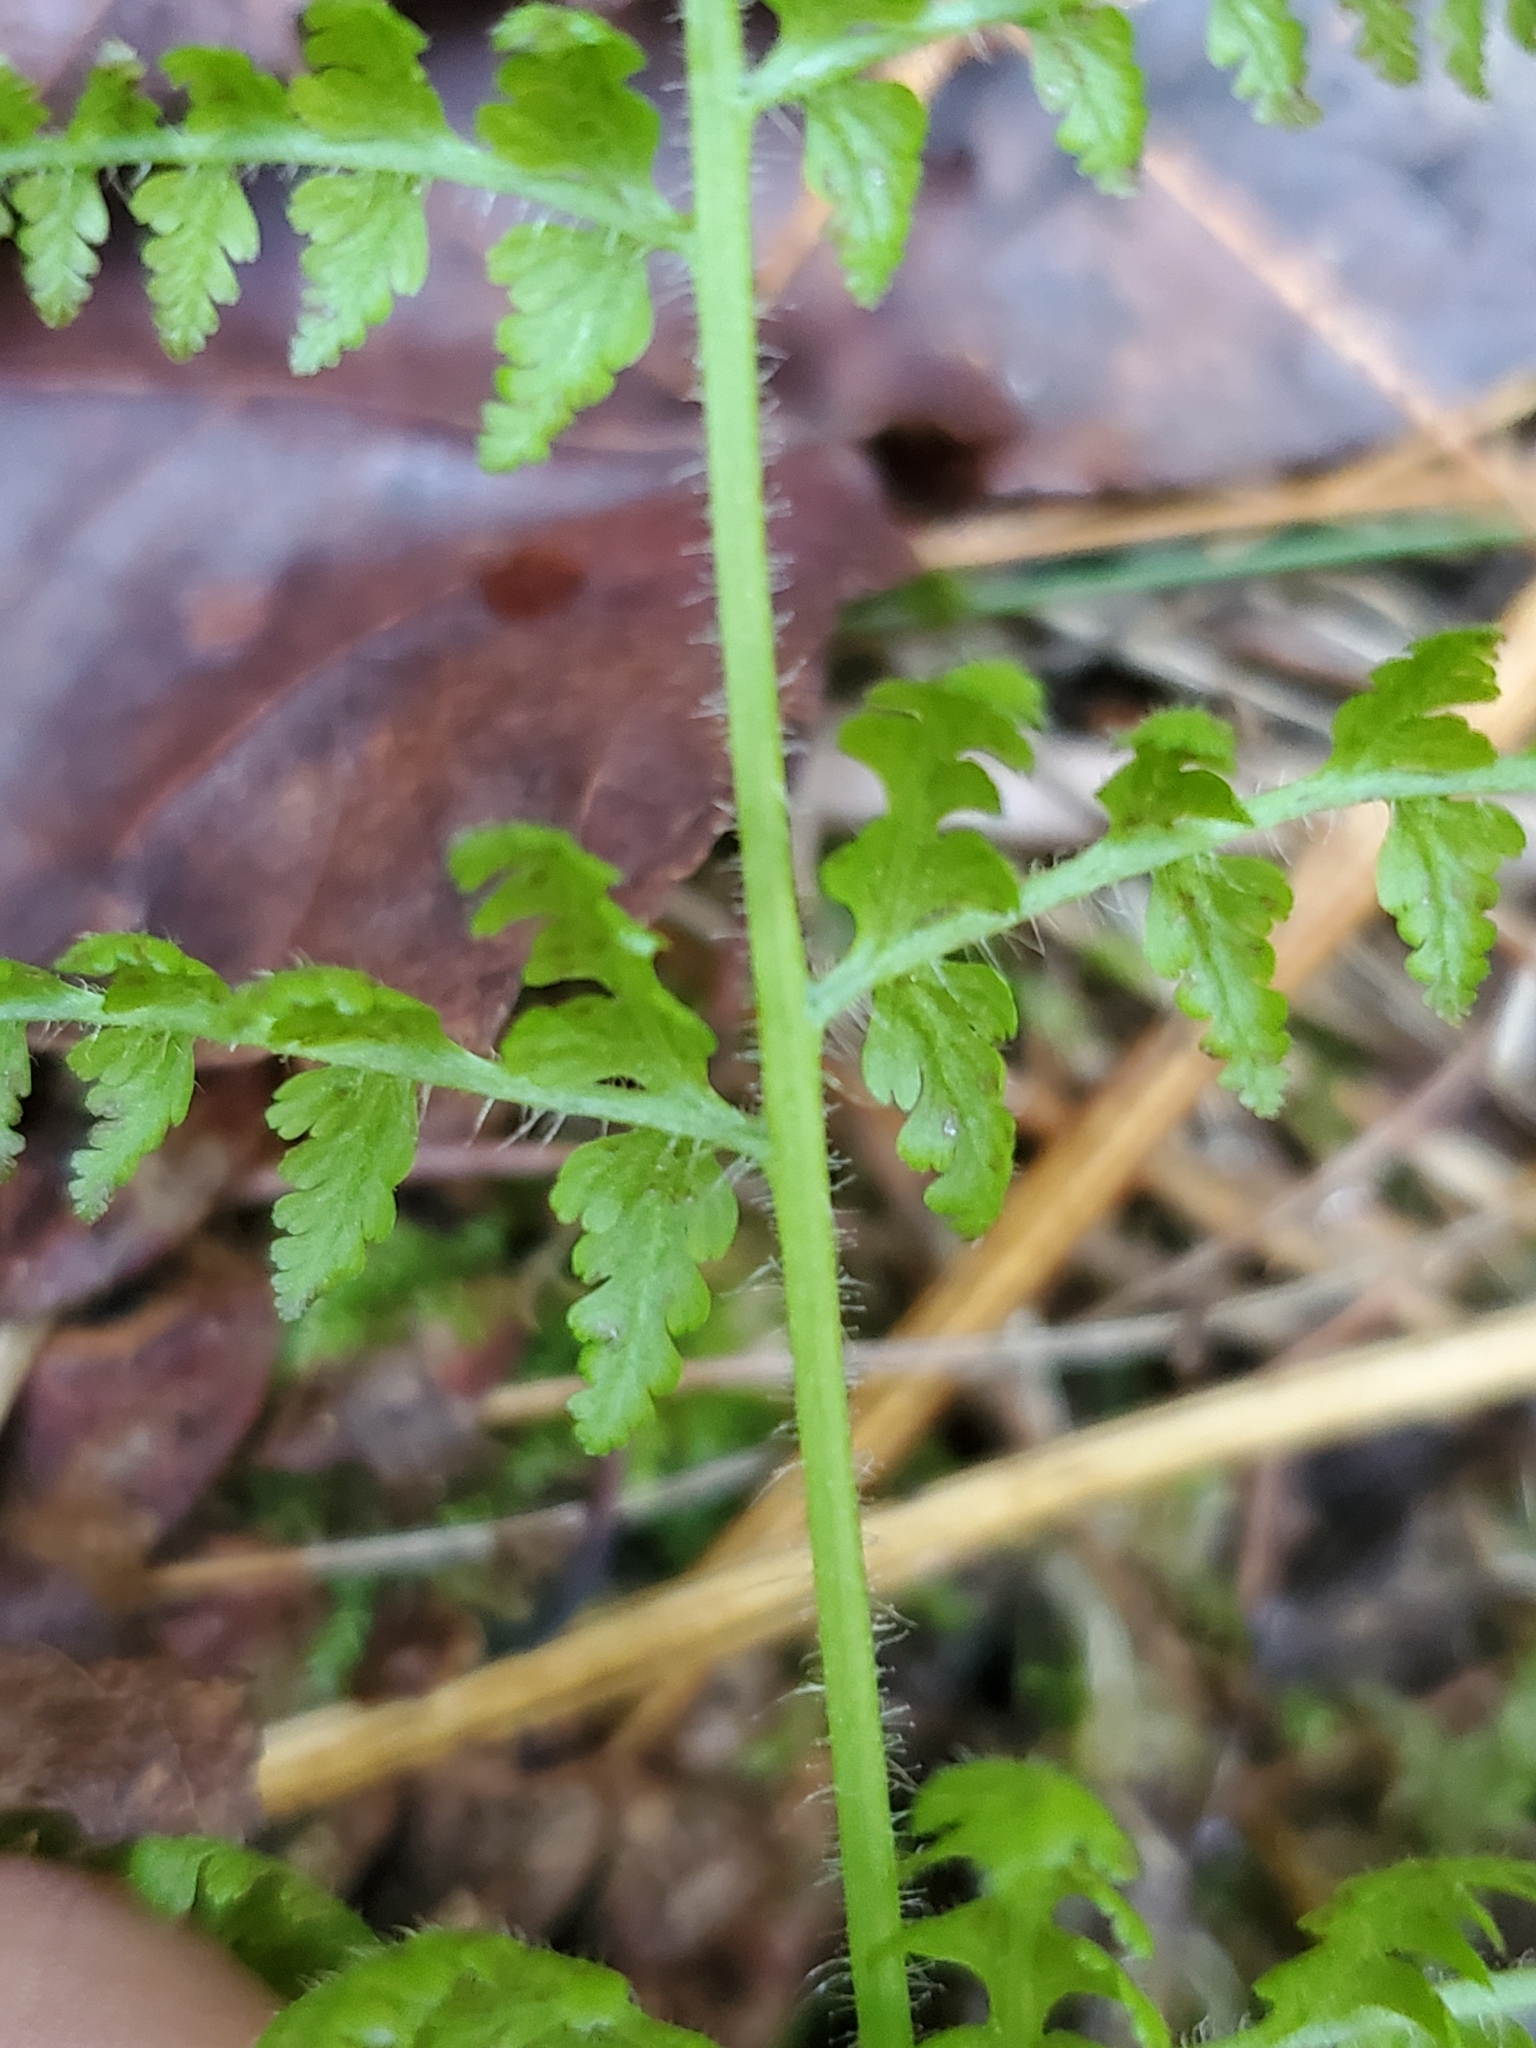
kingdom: Plantae
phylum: Tracheophyta
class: Polypodiopsida
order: Polypodiales
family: Dennstaedtiaceae
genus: Sitobolium
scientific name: Sitobolium punctilobum
